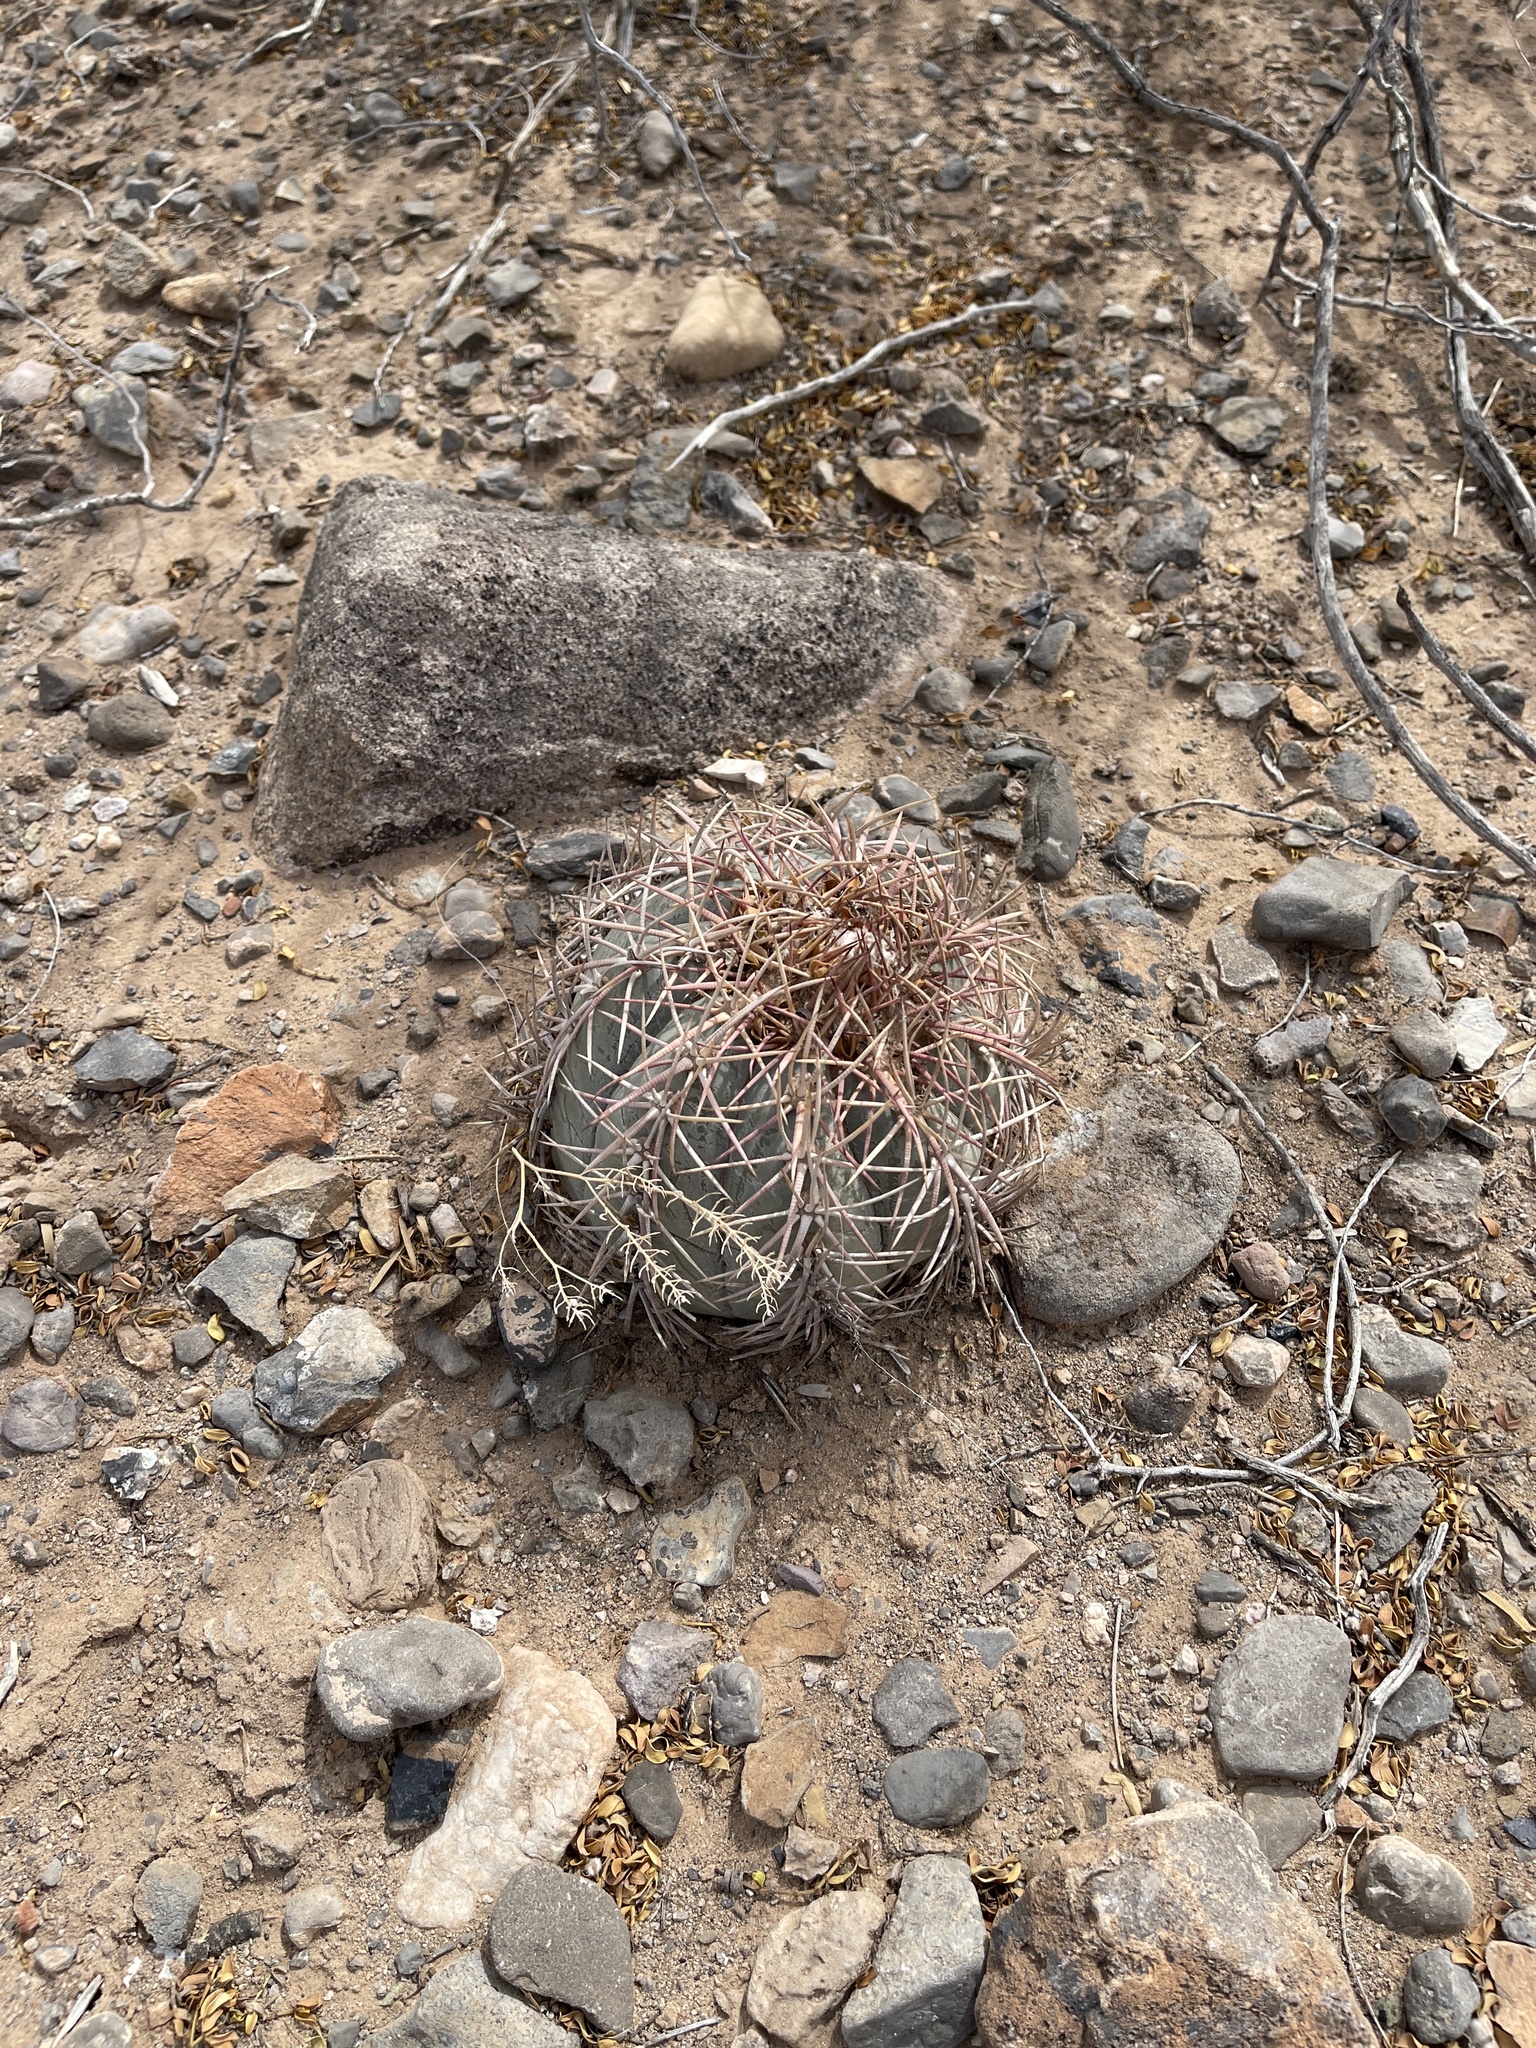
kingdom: Plantae
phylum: Tracheophyta
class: Magnoliopsida
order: Caryophyllales
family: Cactaceae
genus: Echinocactus
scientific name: Echinocactus horizonthalonius
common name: Devilshead
